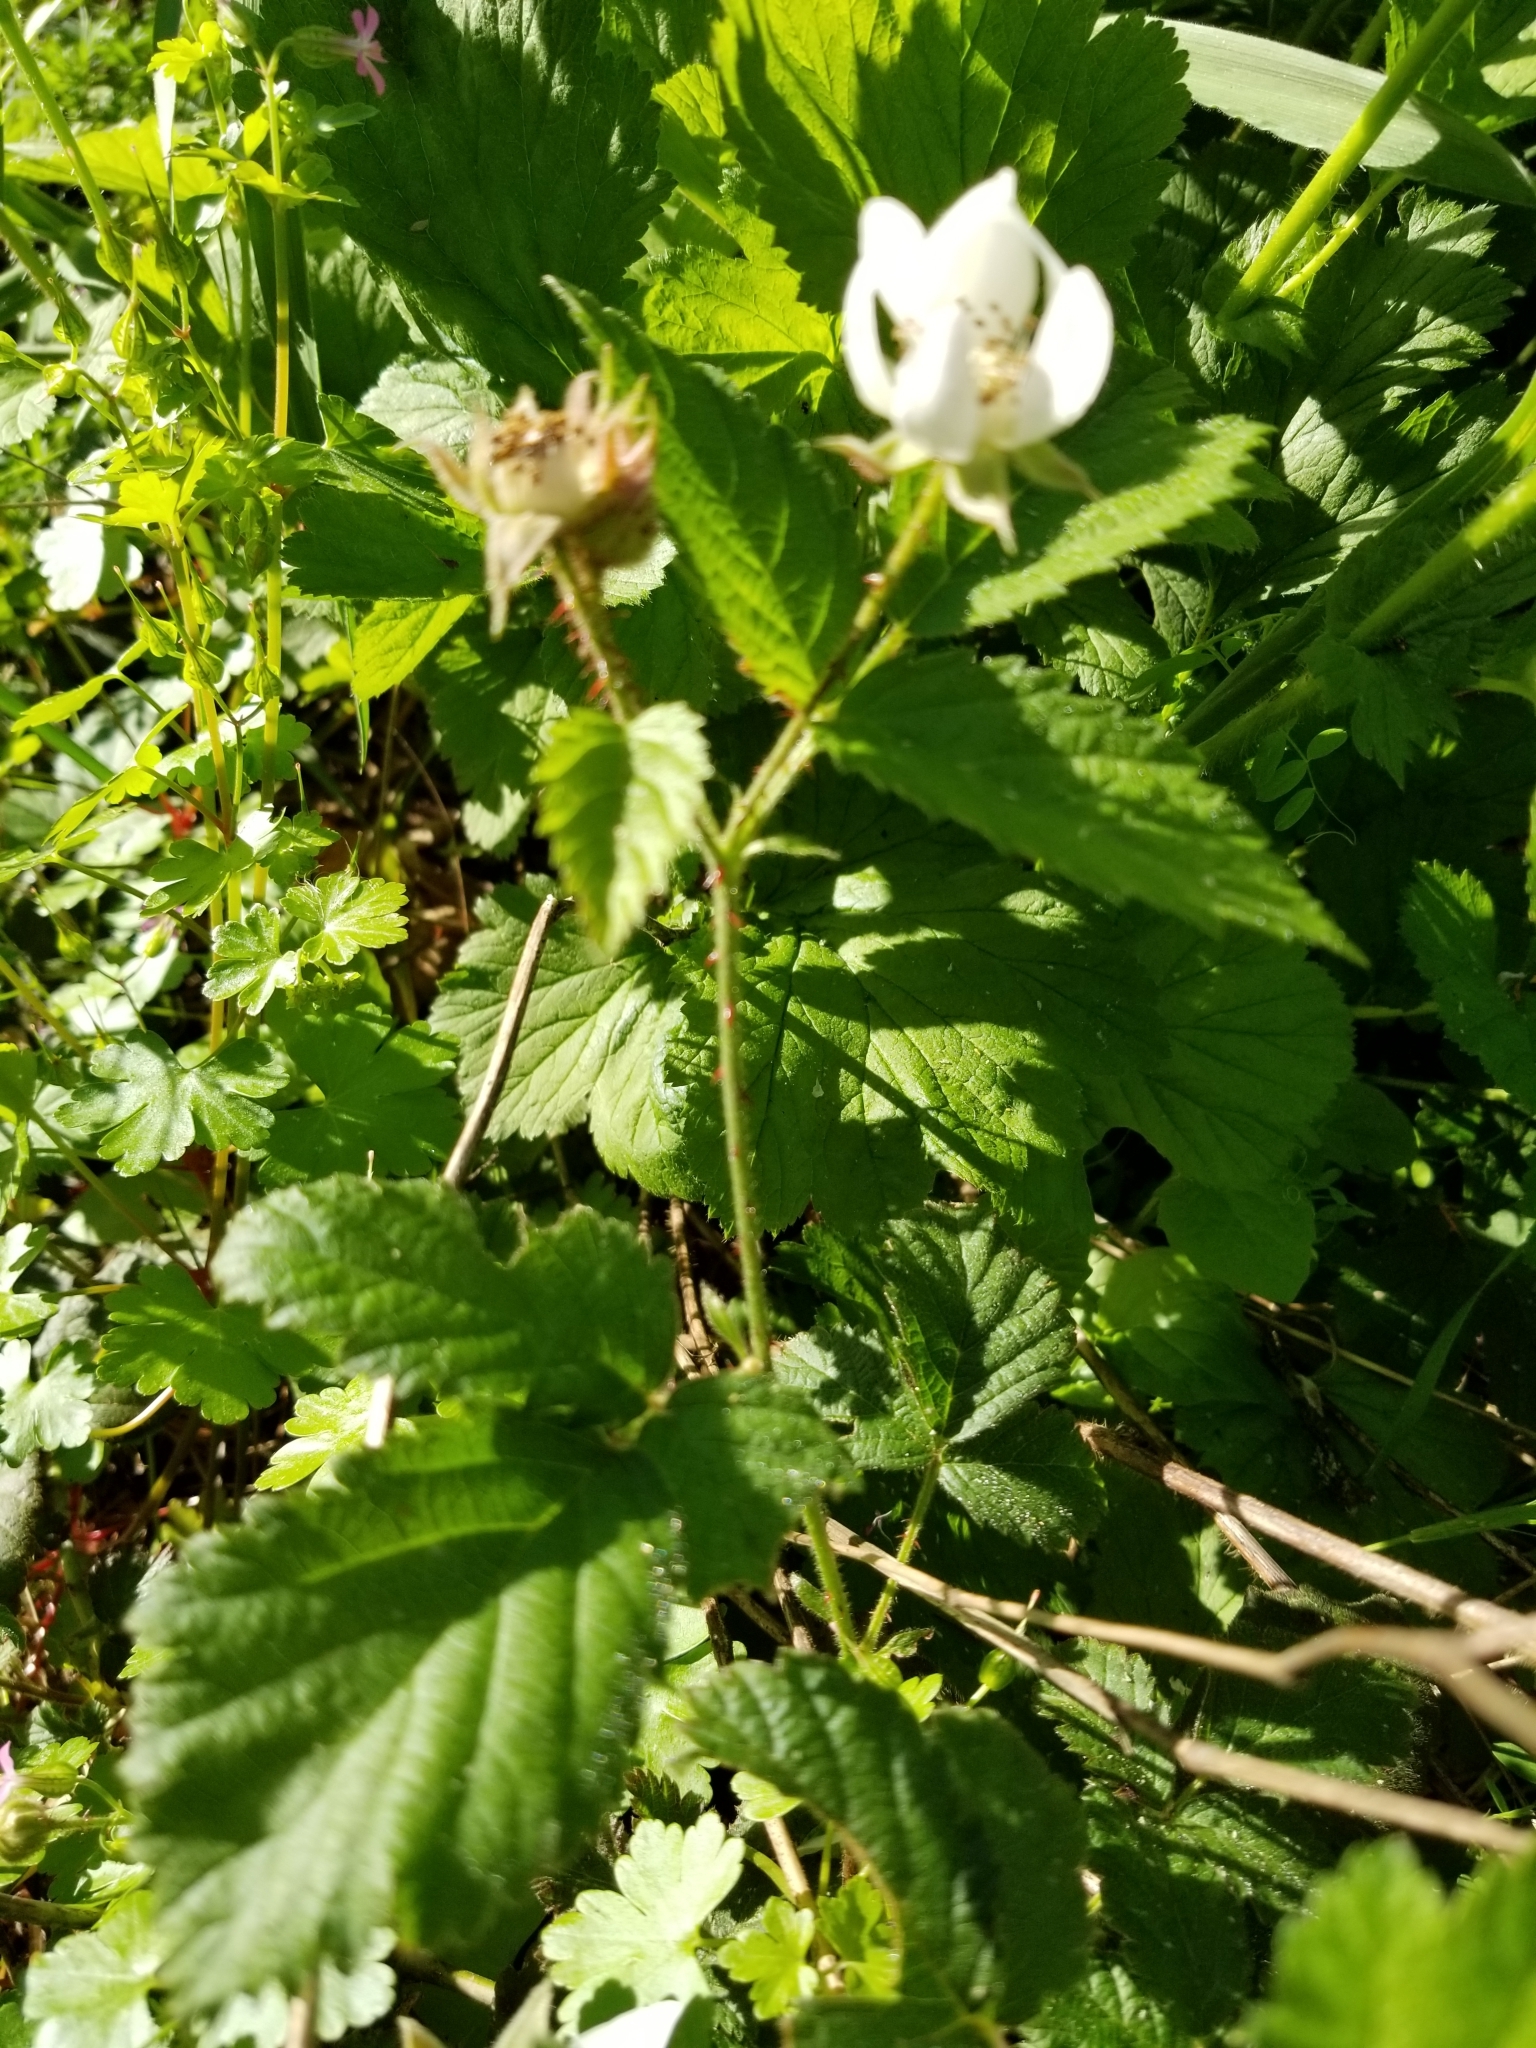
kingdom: Plantae
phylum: Tracheophyta
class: Magnoliopsida
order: Rosales
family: Rosaceae
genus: Rubus
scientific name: Rubus armeniacus
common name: Himalayan blackberry
